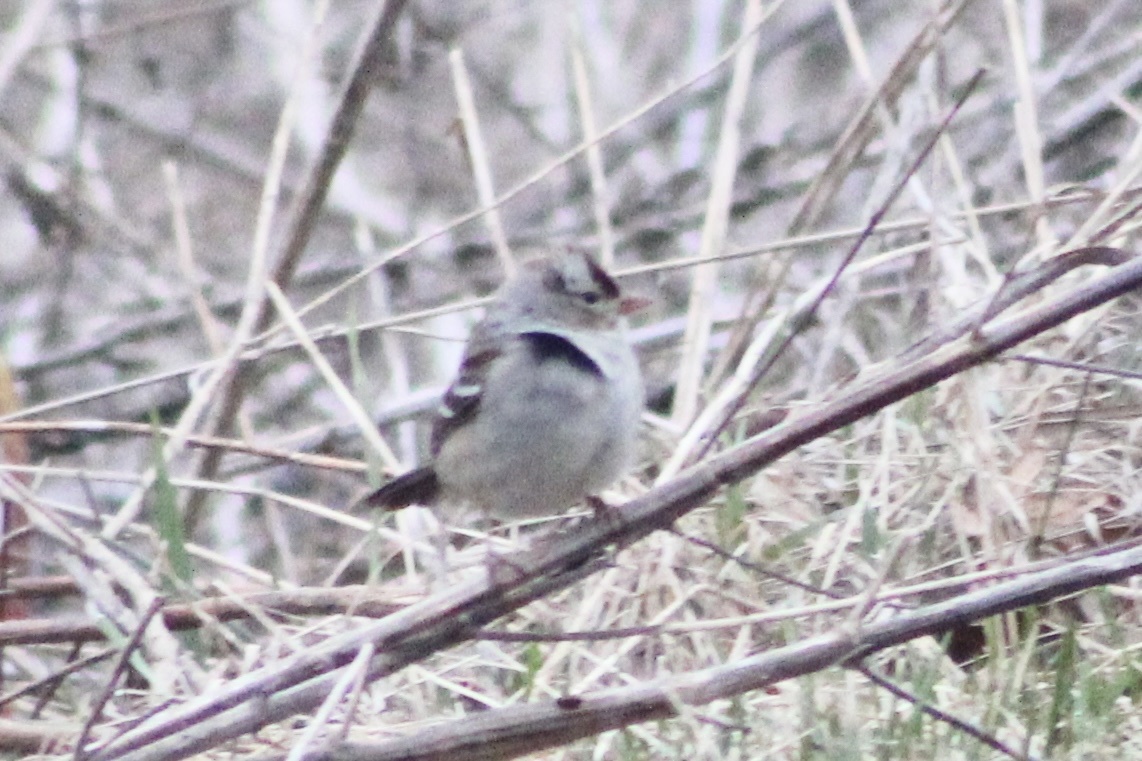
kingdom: Animalia
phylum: Chordata
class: Aves
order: Passeriformes
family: Passerellidae
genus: Zonotrichia
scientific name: Zonotrichia leucophrys
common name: White-crowned sparrow
